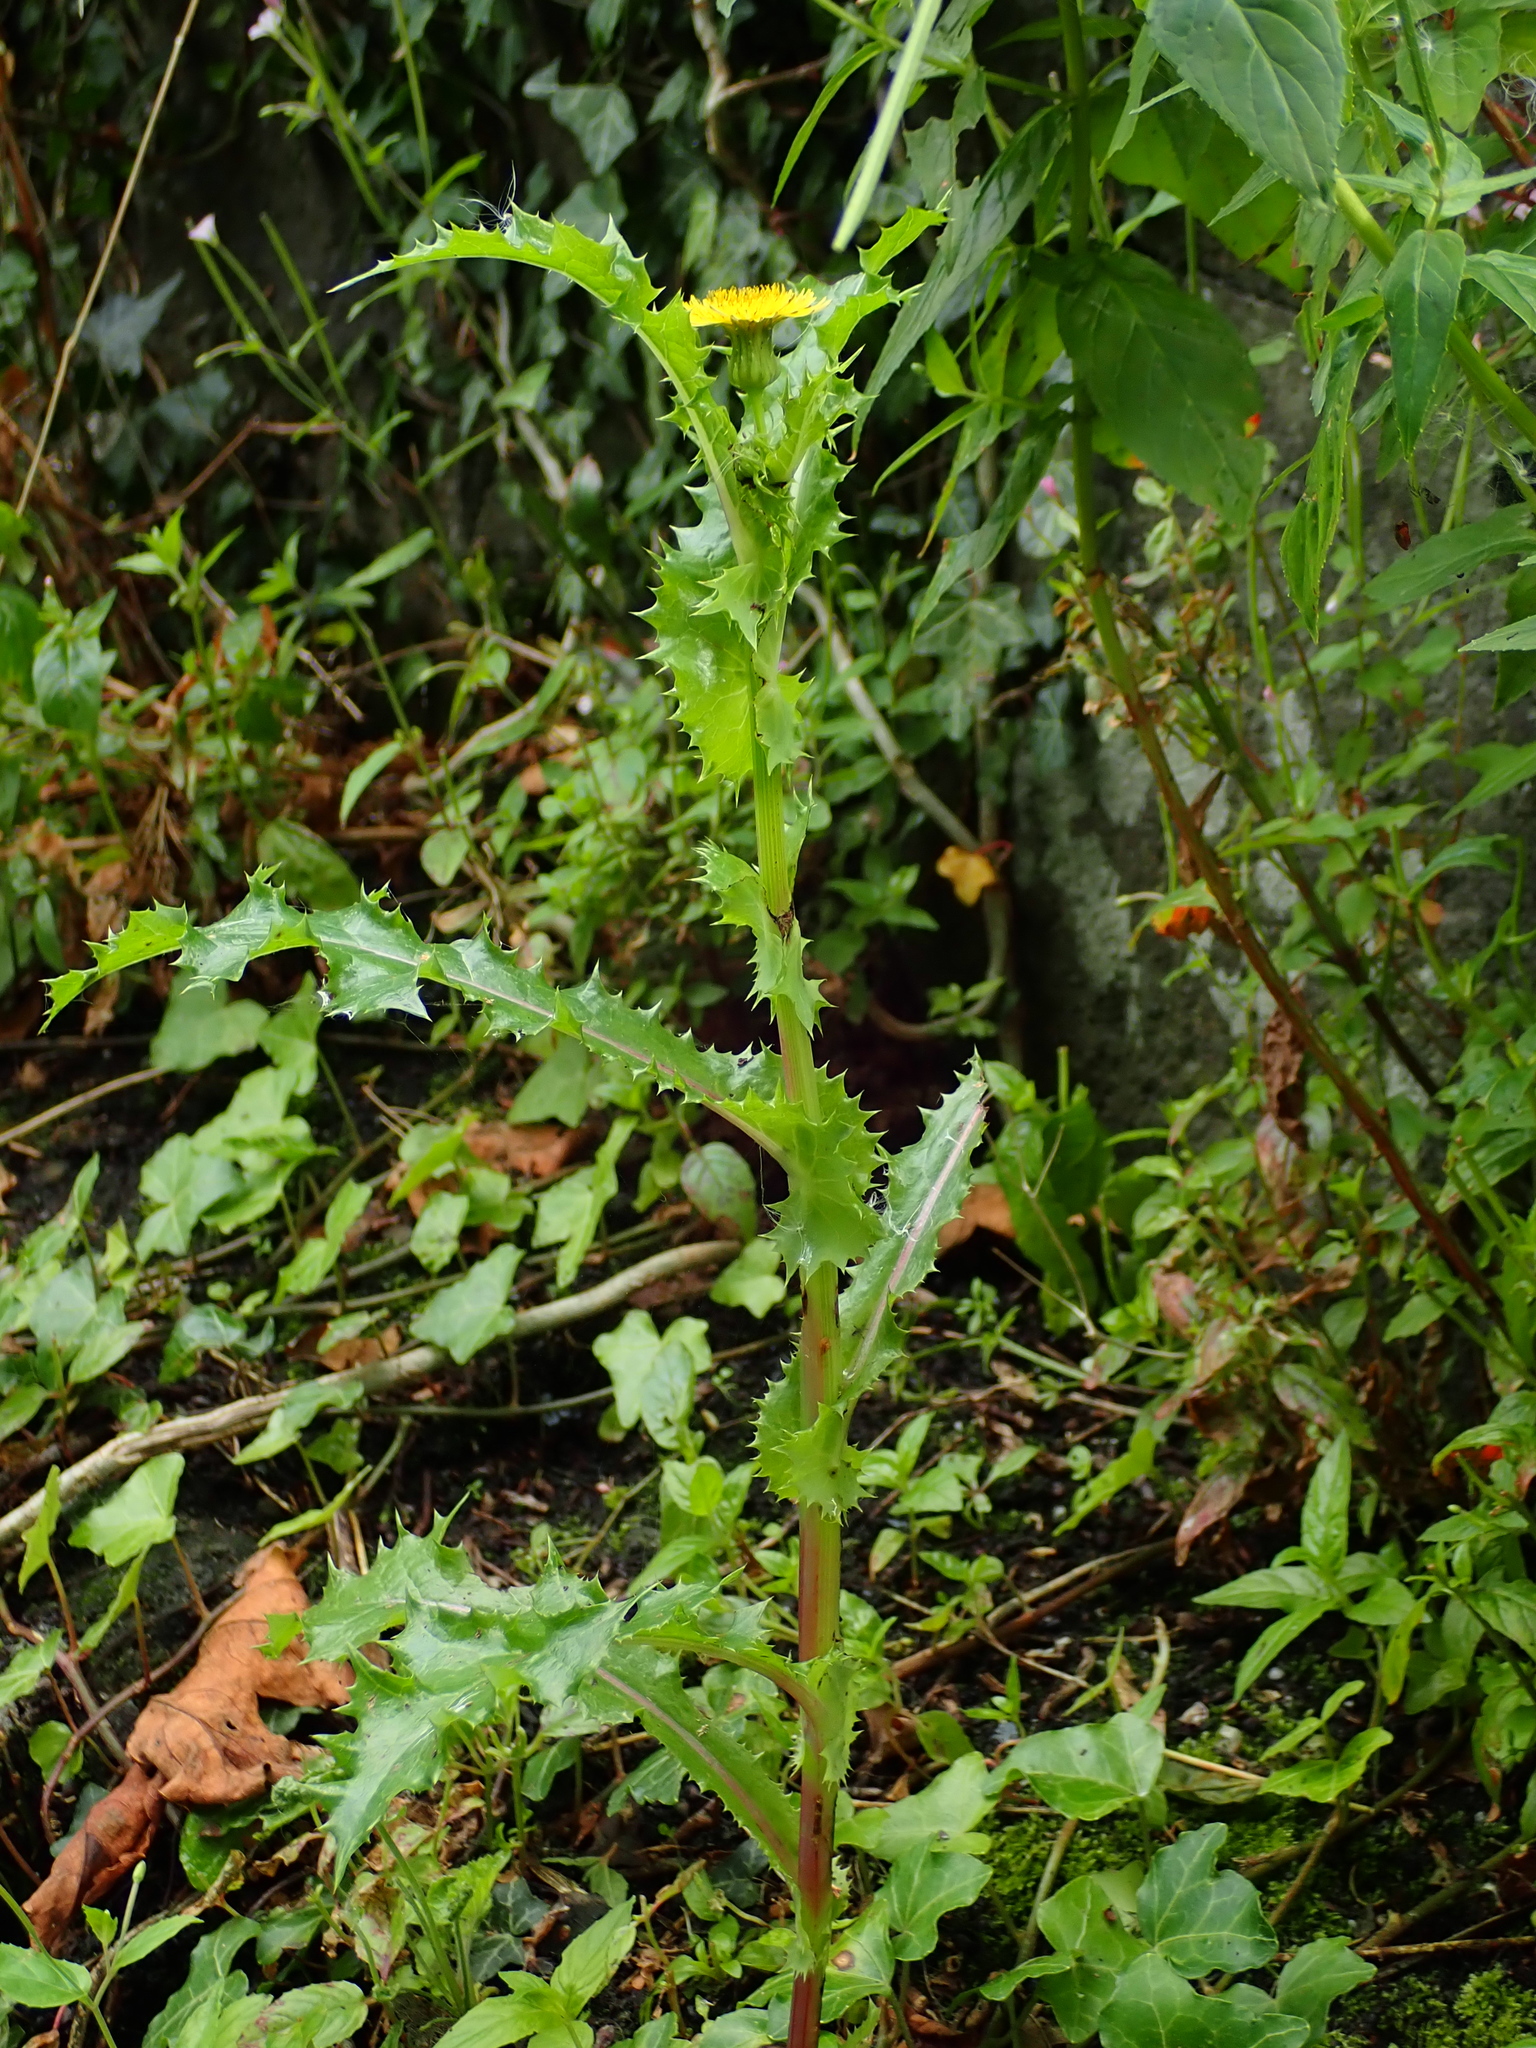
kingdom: Plantae
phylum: Tracheophyta
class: Magnoliopsida
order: Asterales
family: Asteraceae
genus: Sonchus
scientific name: Sonchus asper
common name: Prickly sow-thistle
